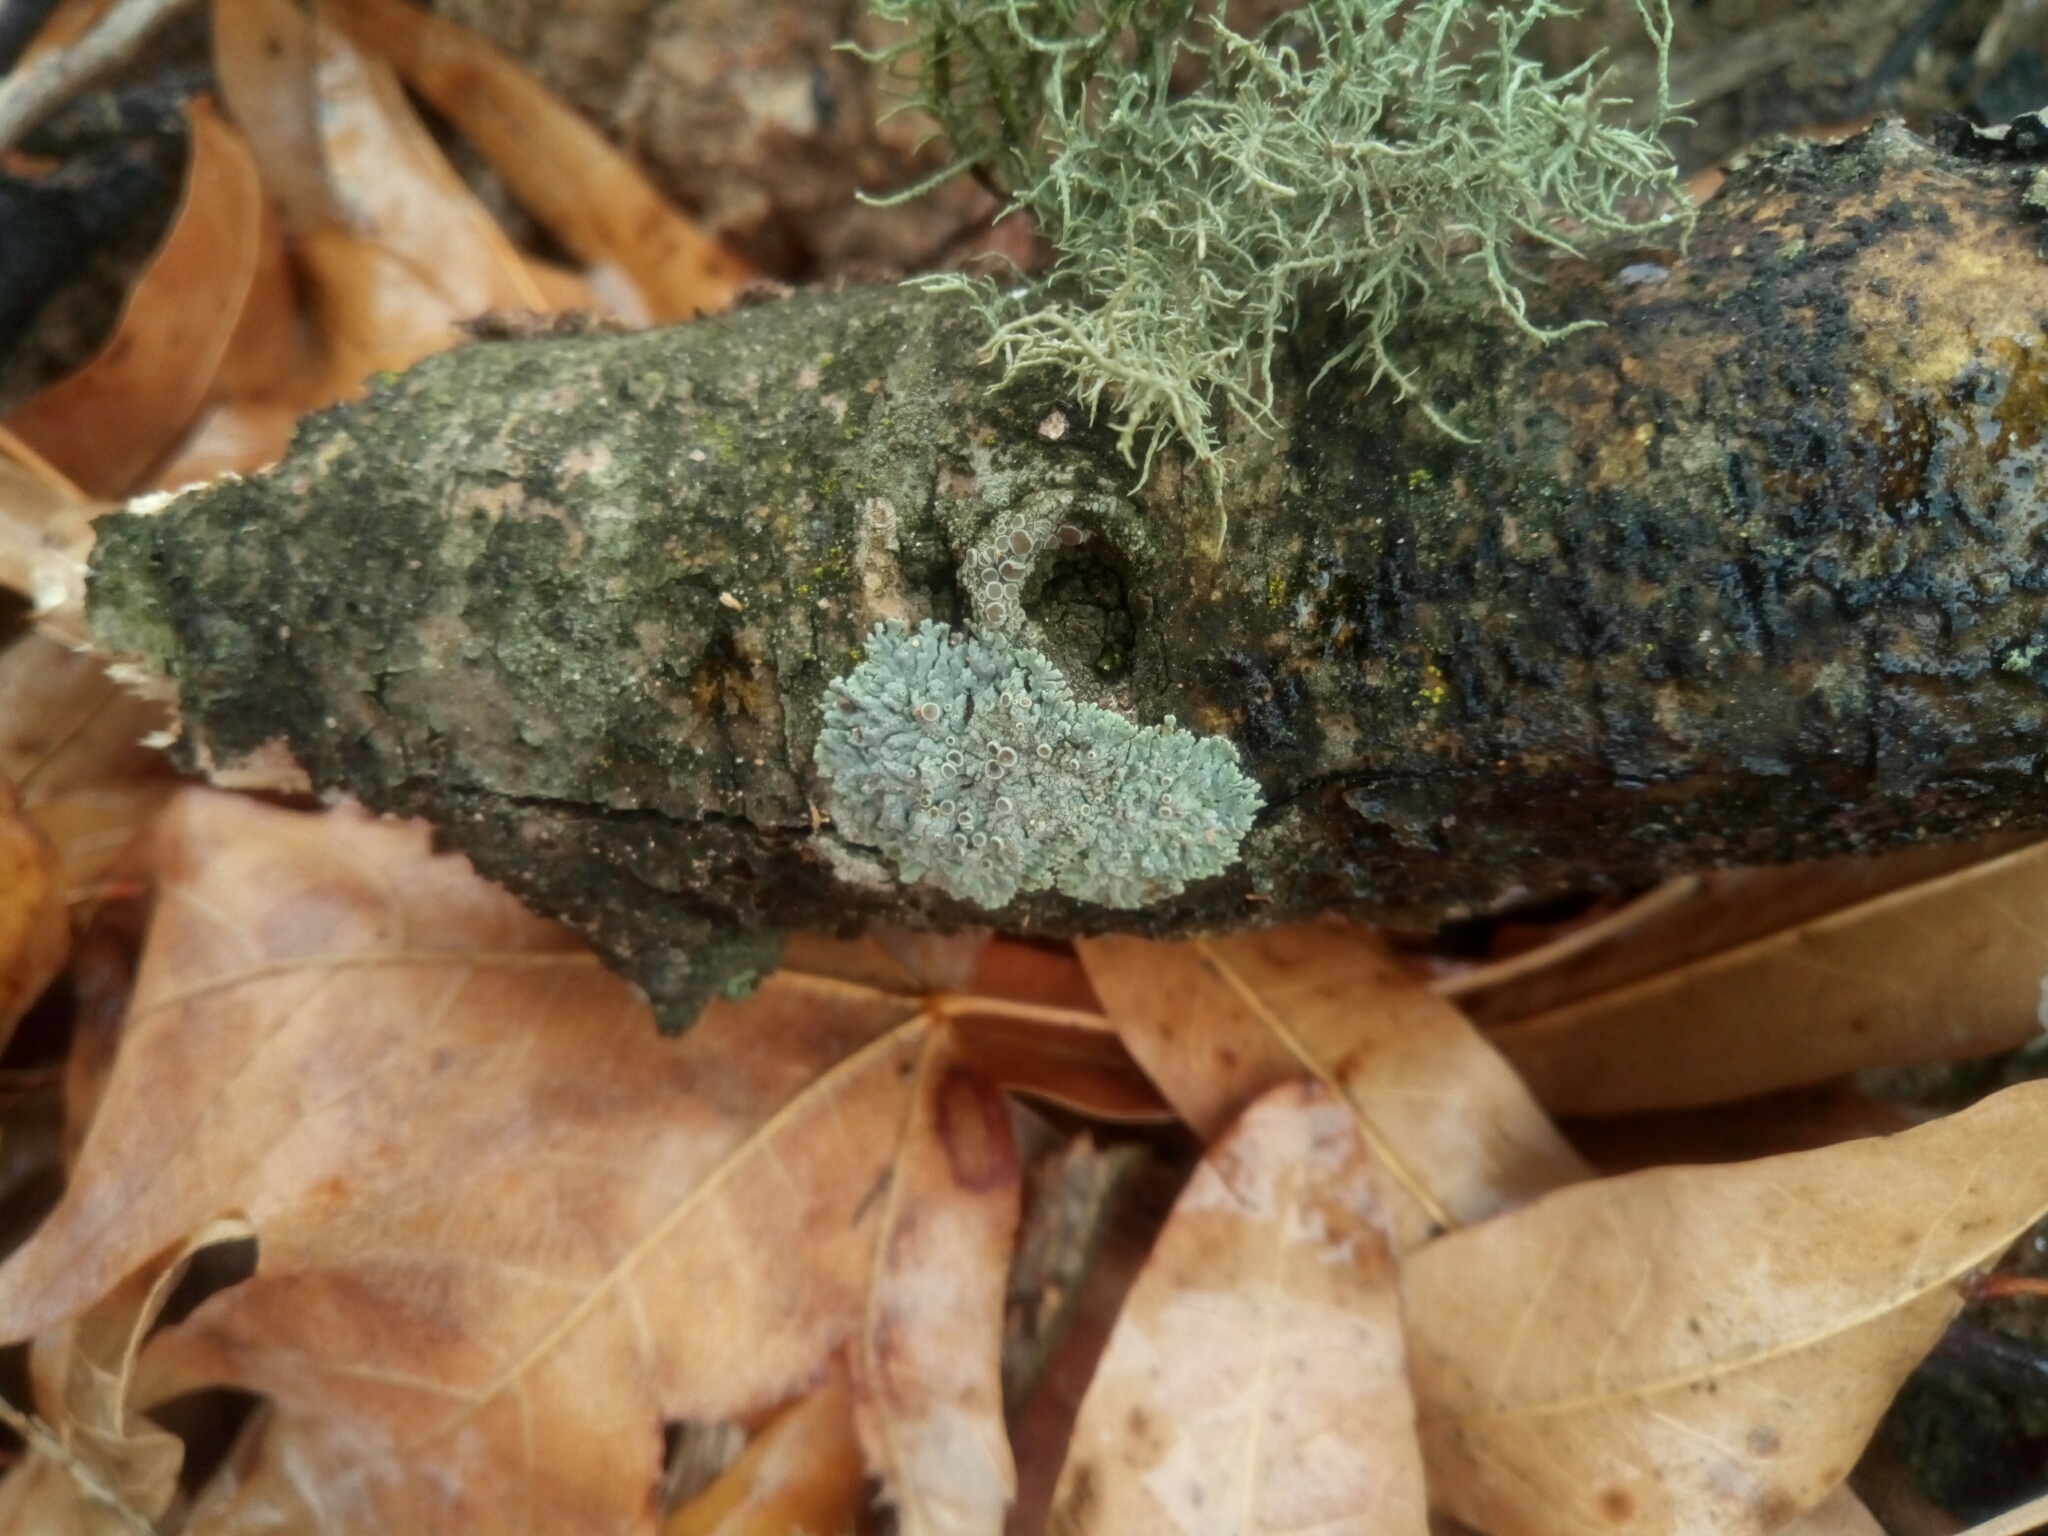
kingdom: Fungi
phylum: Ascomycota
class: Lecanoromycetes
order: Caliciales
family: Physciaceae
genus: Physcia
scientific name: Physcia stellaris
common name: Star rosette lichen
